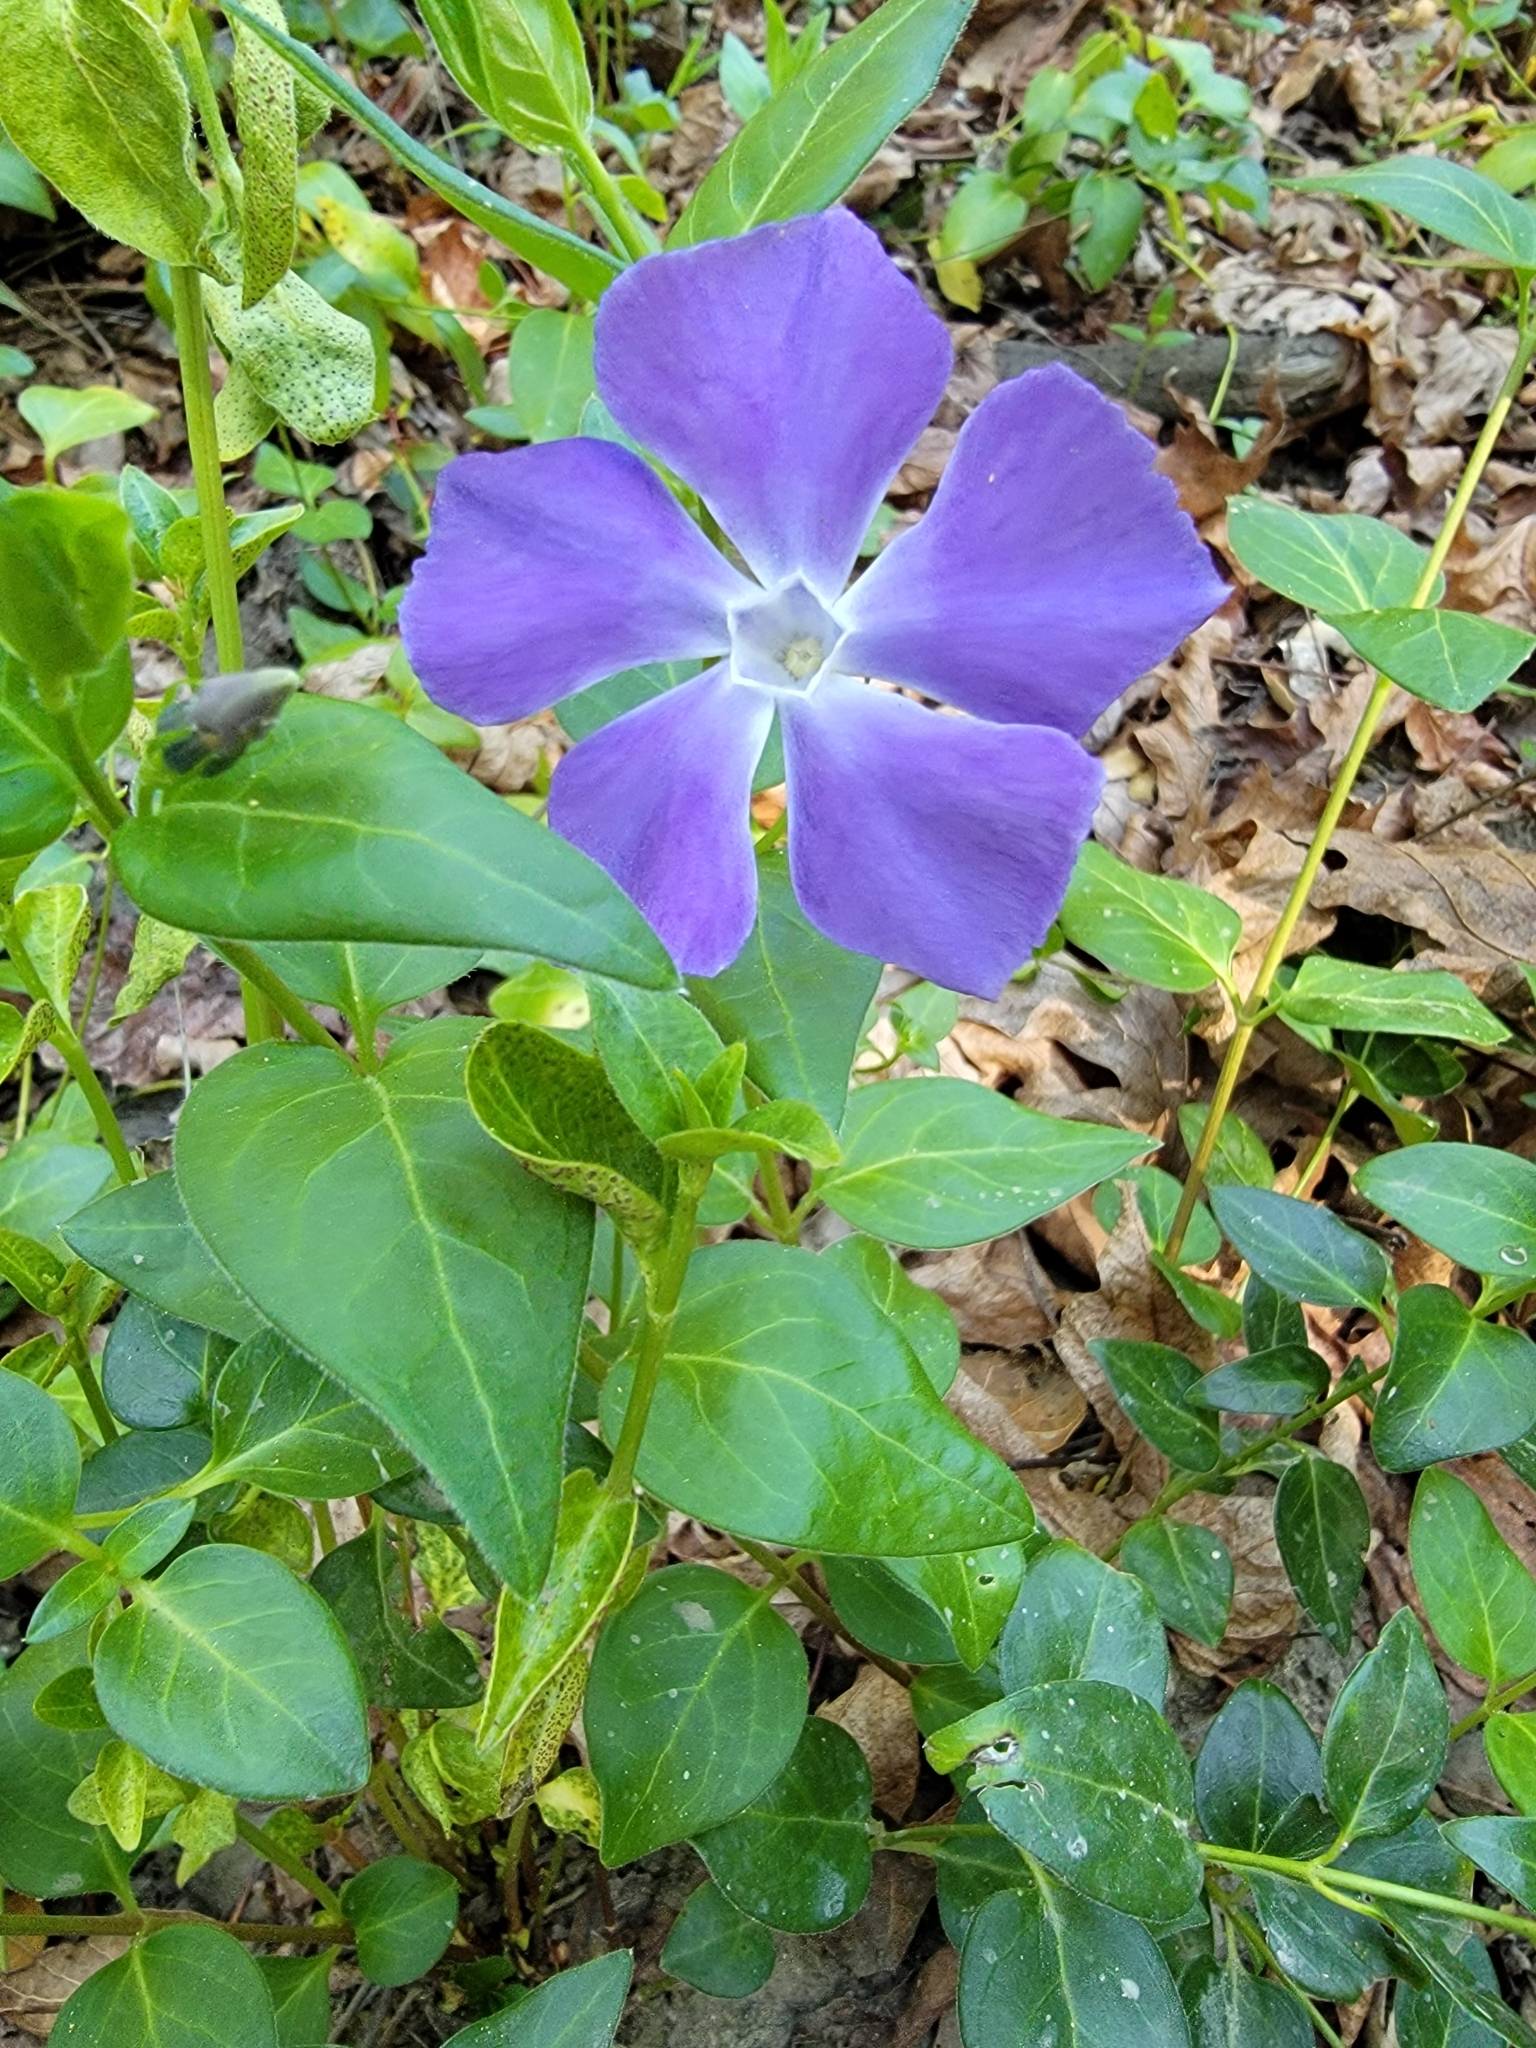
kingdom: Plantae
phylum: Tracheophyta
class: Magnoliopsida
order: Gentianales
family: Apocynaceae
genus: Vinca
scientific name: Vinca major
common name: Greater periwinkle
